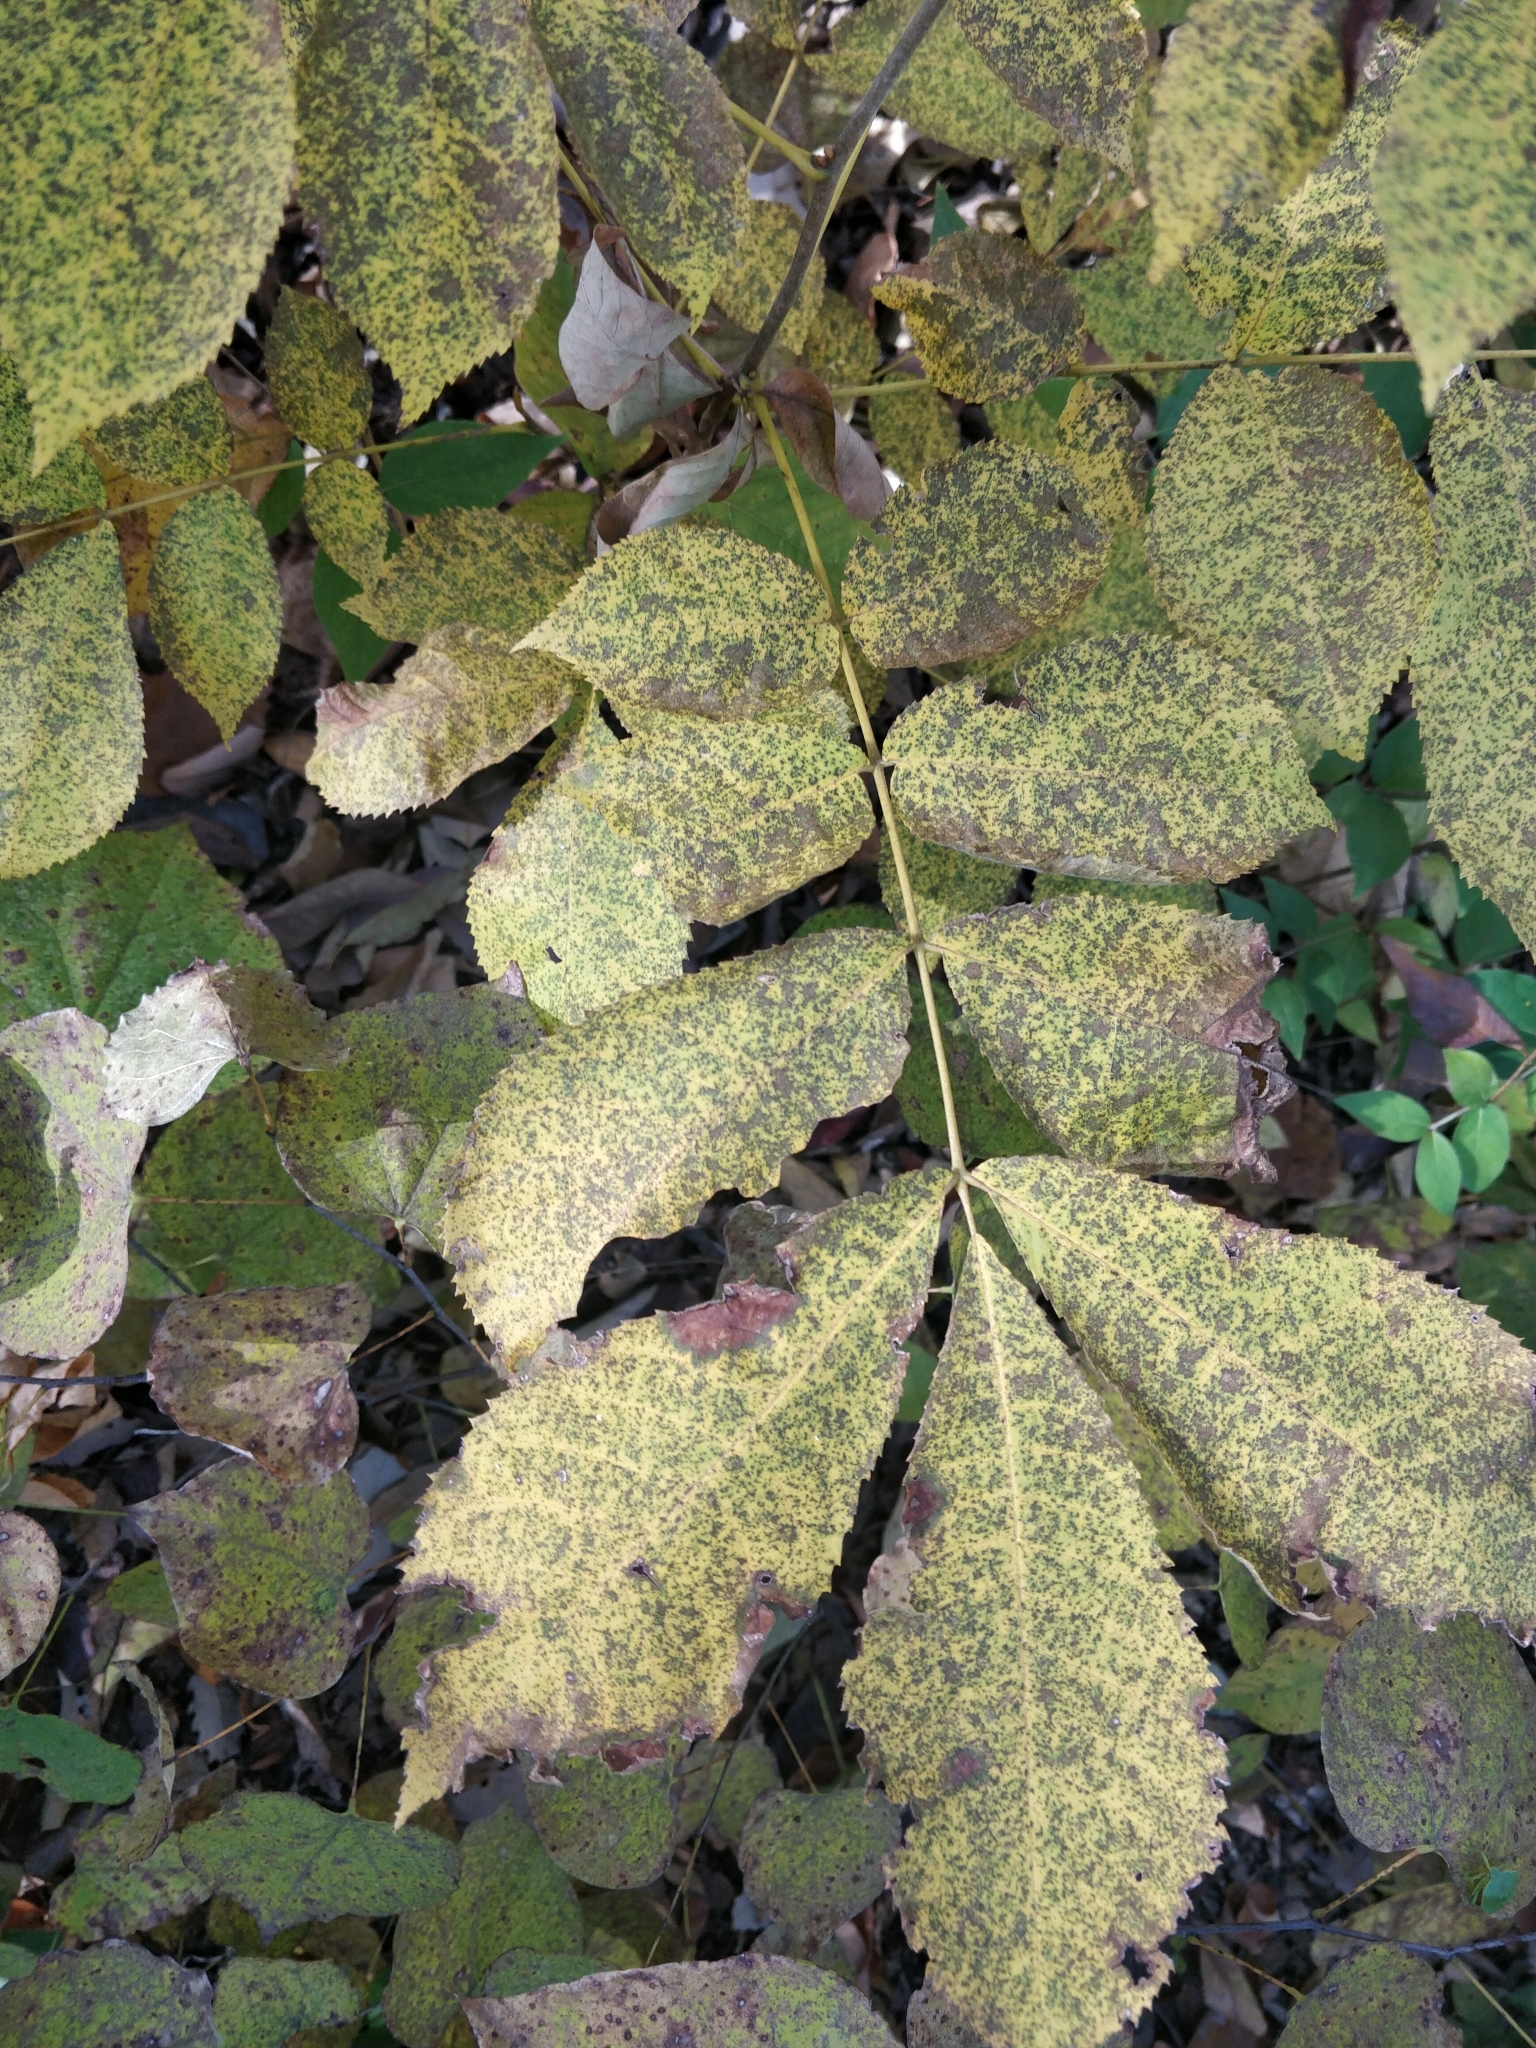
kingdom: Plantae
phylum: Tracheophyta
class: Magnoliopsida
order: Fagales
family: Juglandaceae
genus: Carya
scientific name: Carya cordiformis
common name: Bitternut hickory
